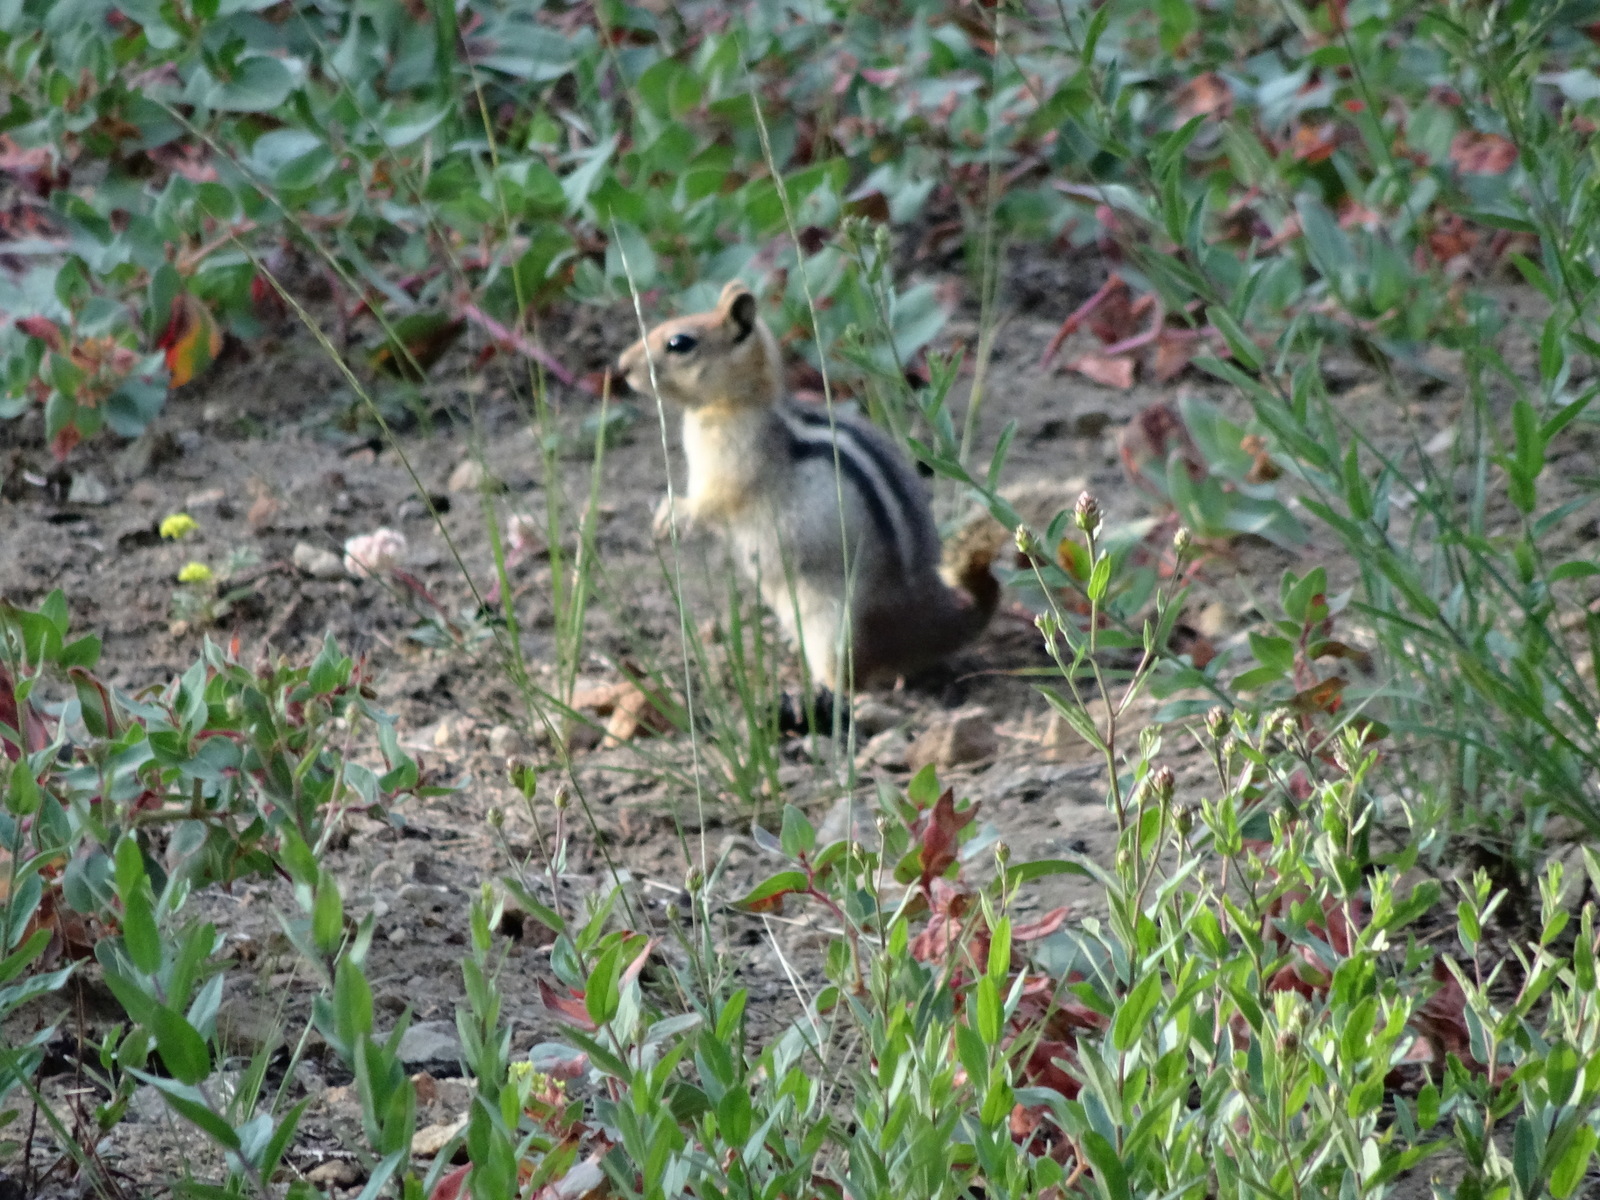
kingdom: Animalia
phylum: Chordata
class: Mammalia
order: Rodentia
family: Sciuridae
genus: Callospermophilus
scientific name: Callospermophilus lateralis
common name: Golden-mantled ground squirrel
